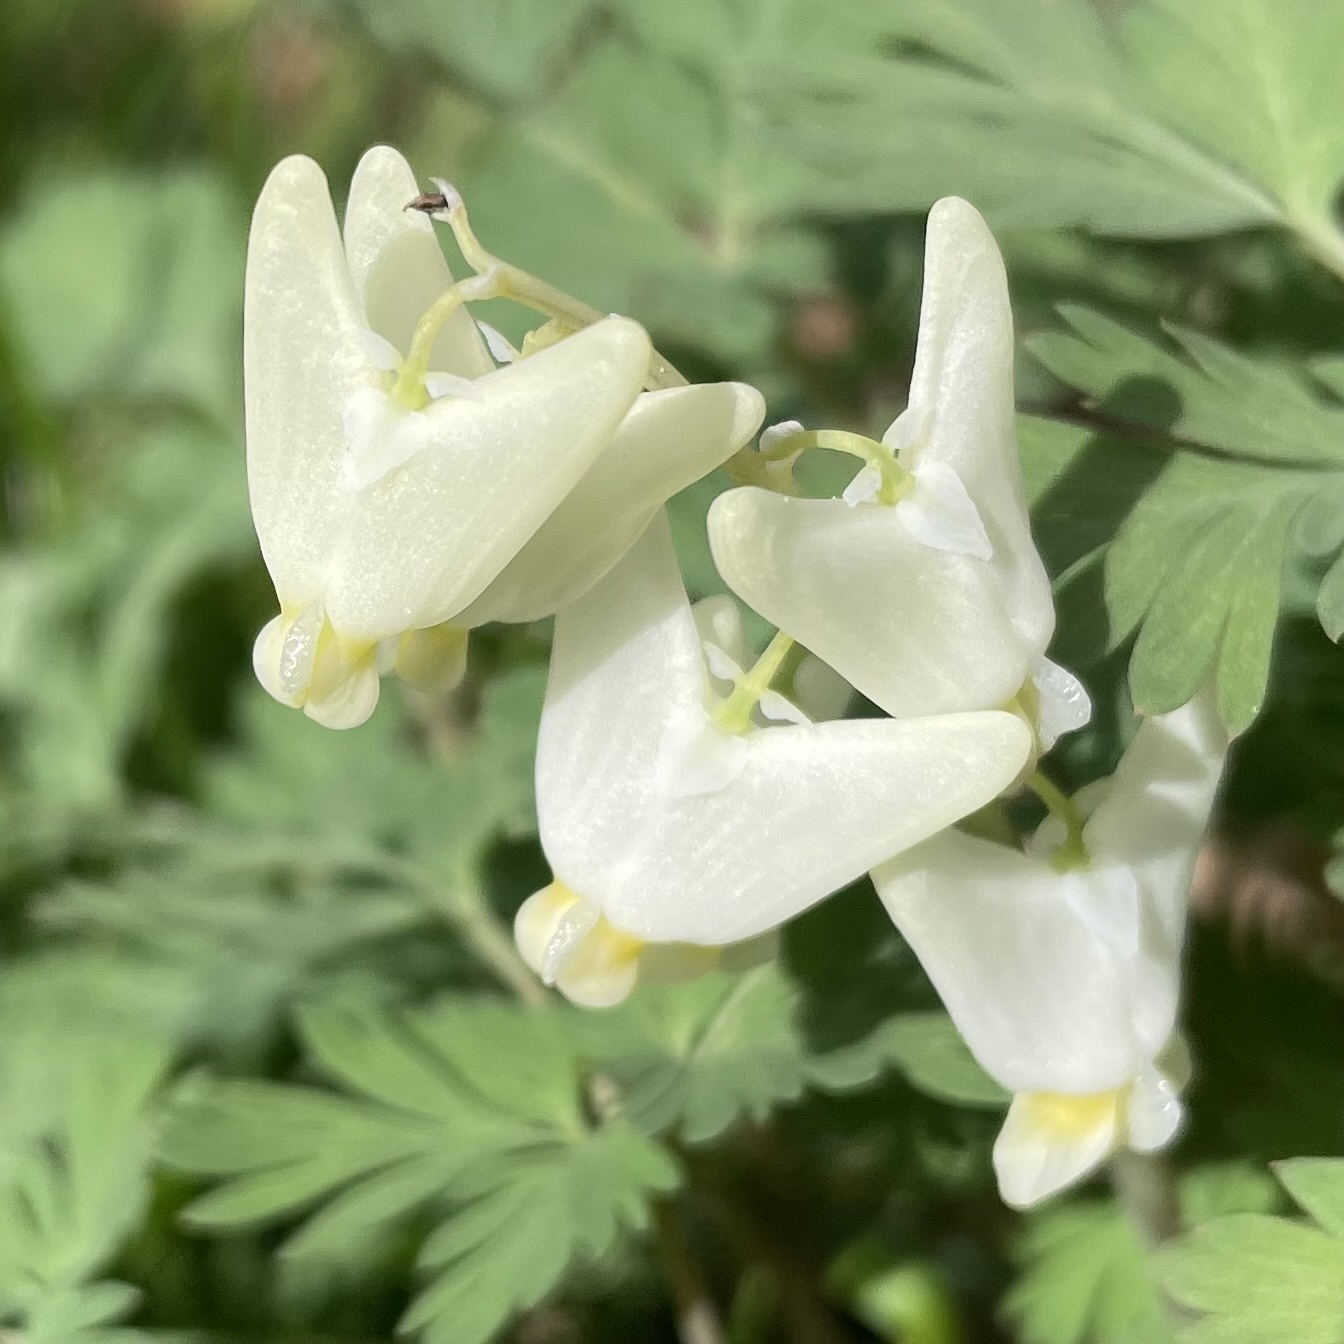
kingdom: Plantae
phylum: Tracheophyta
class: Magnoliopsida
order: Ranunculales
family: Papaveraceae
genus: Dicentra
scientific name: Dicentra cucullaria
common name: Dutchman's breeches
